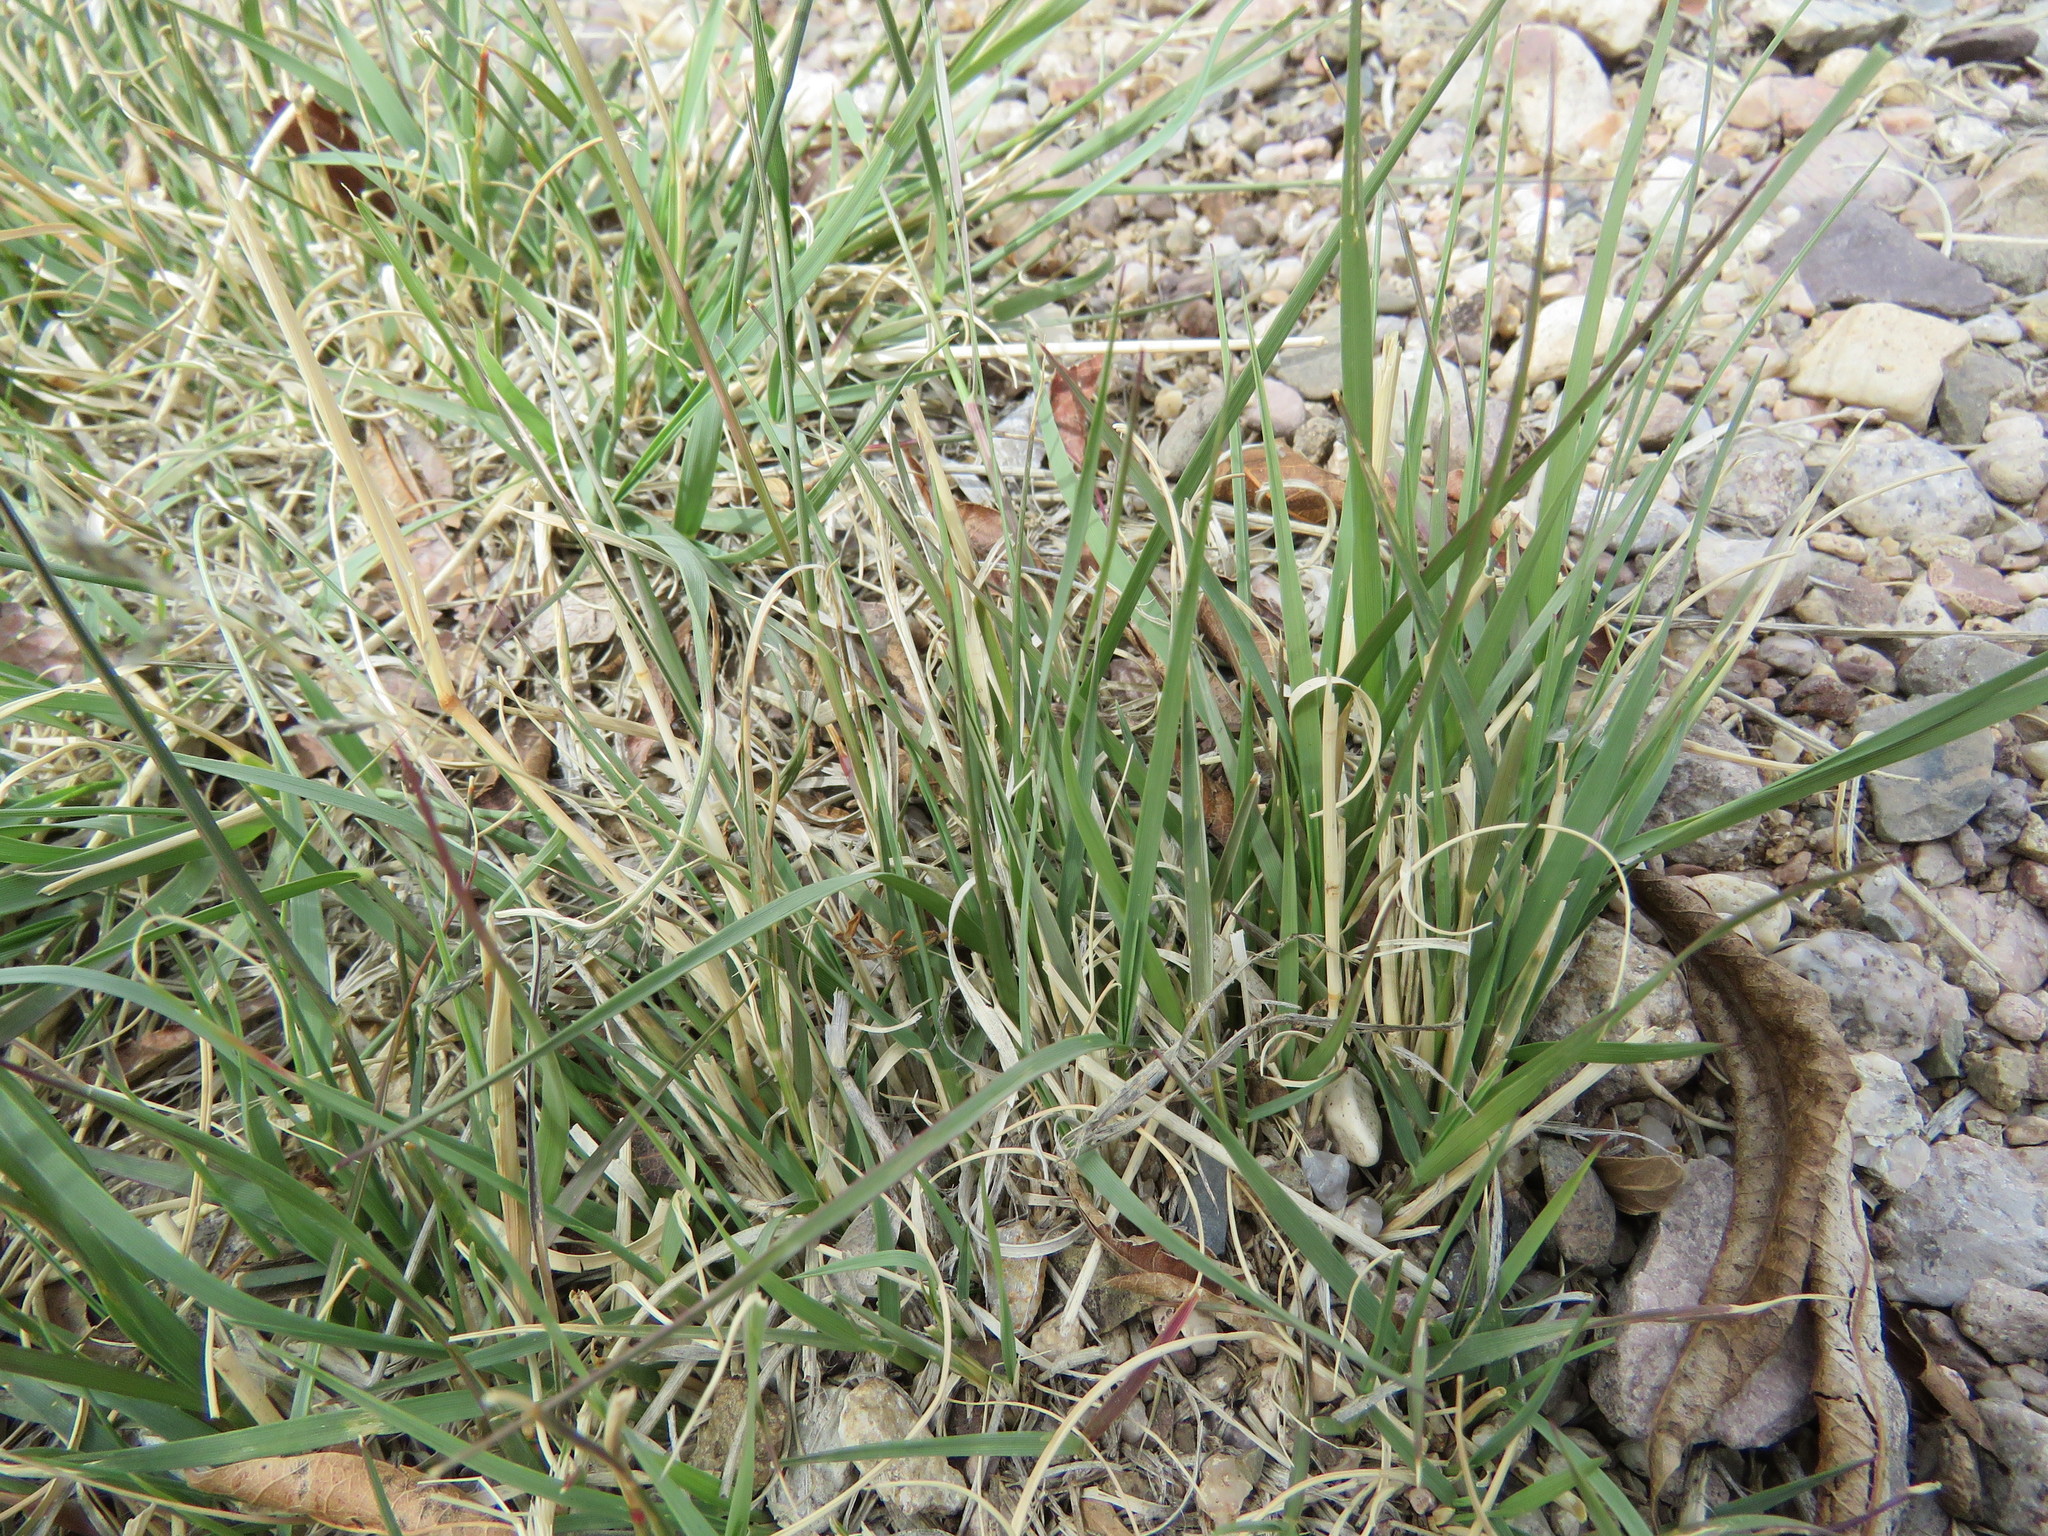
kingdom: Plantae
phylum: Tracheophyta
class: Liliopsida
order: Poales
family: Poaceae
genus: Bouteloua
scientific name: Bouteloua gracilis
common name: Blue grama
